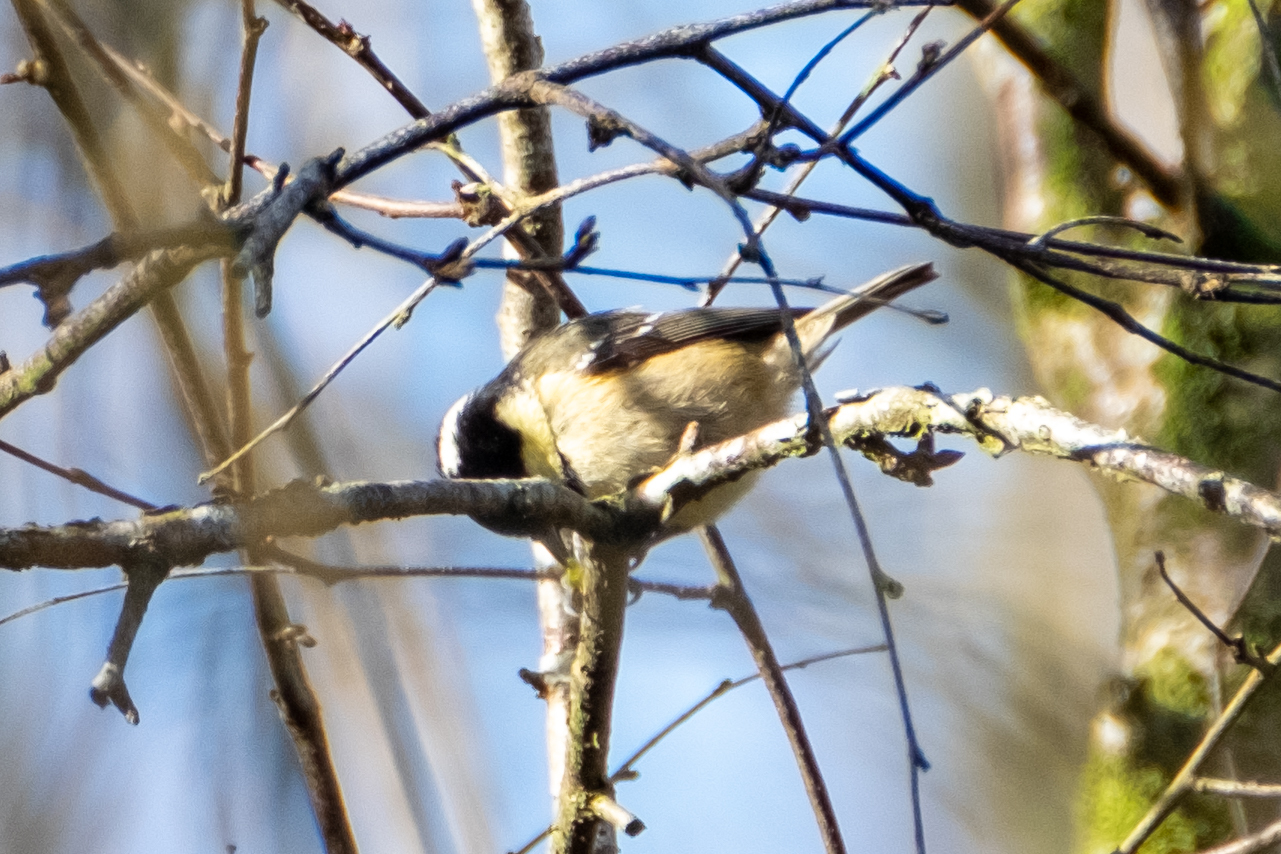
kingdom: Animalia
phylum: Chordata
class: Aves
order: Passeriformes
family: Paridae
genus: Periparus
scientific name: Periparus ater
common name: Coal tit
